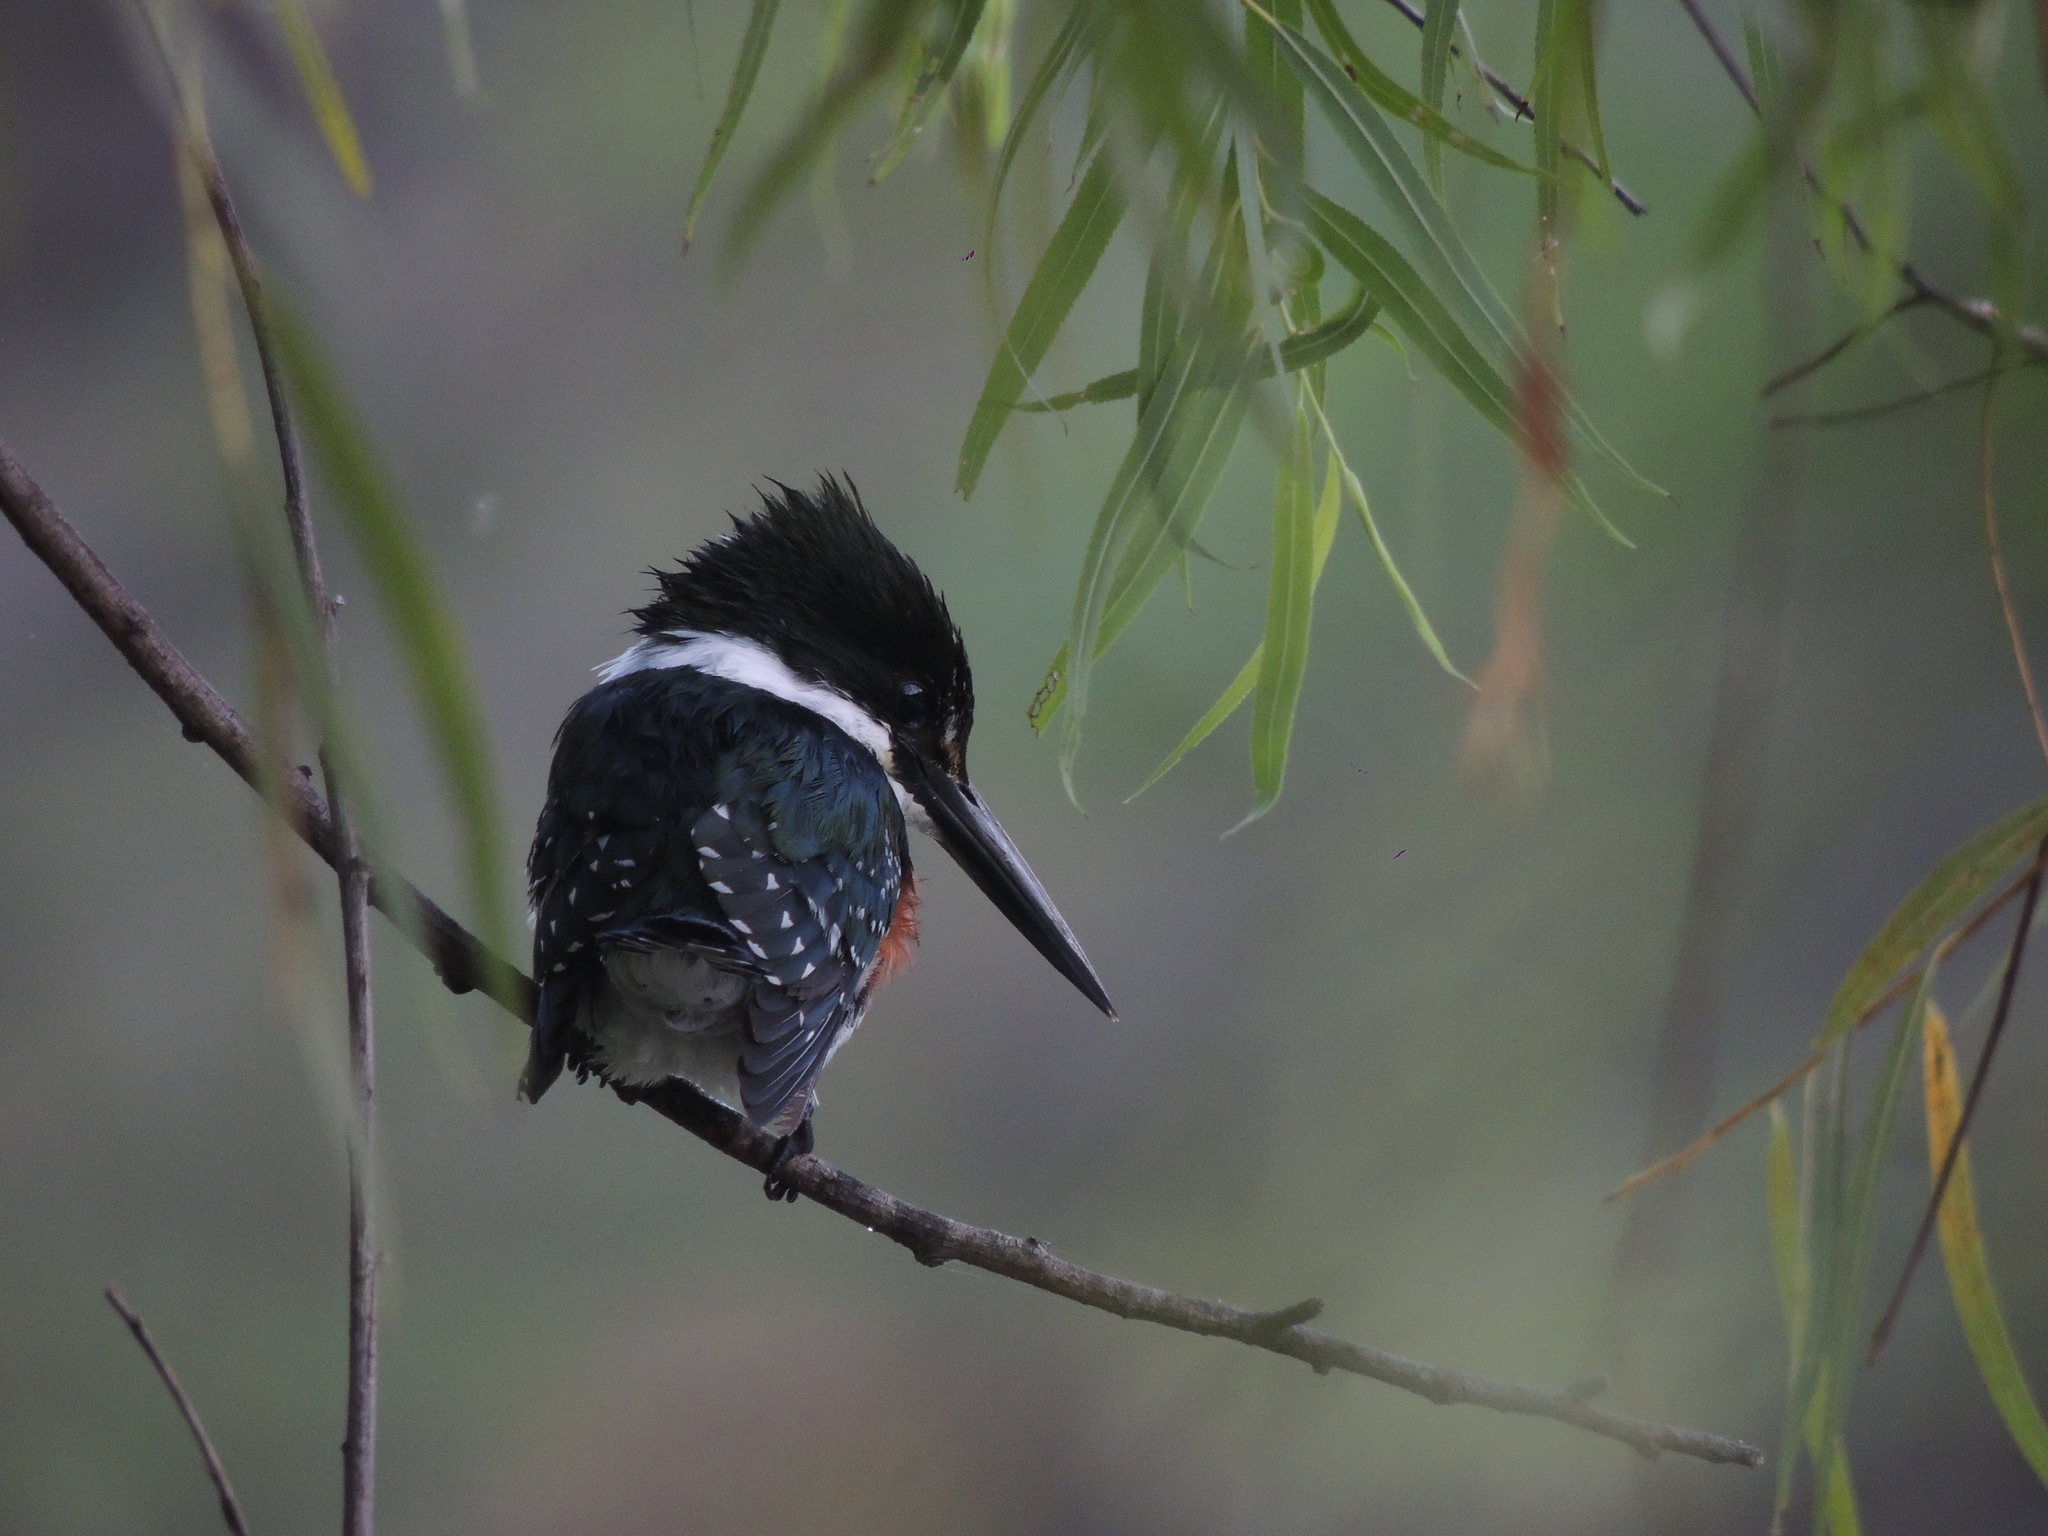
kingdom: Animalia
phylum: Chordata
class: Aves
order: Coraciiformes
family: Alcedinidae
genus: Chloroceryle
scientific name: Chloroceryle americana
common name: Green kingfisher
